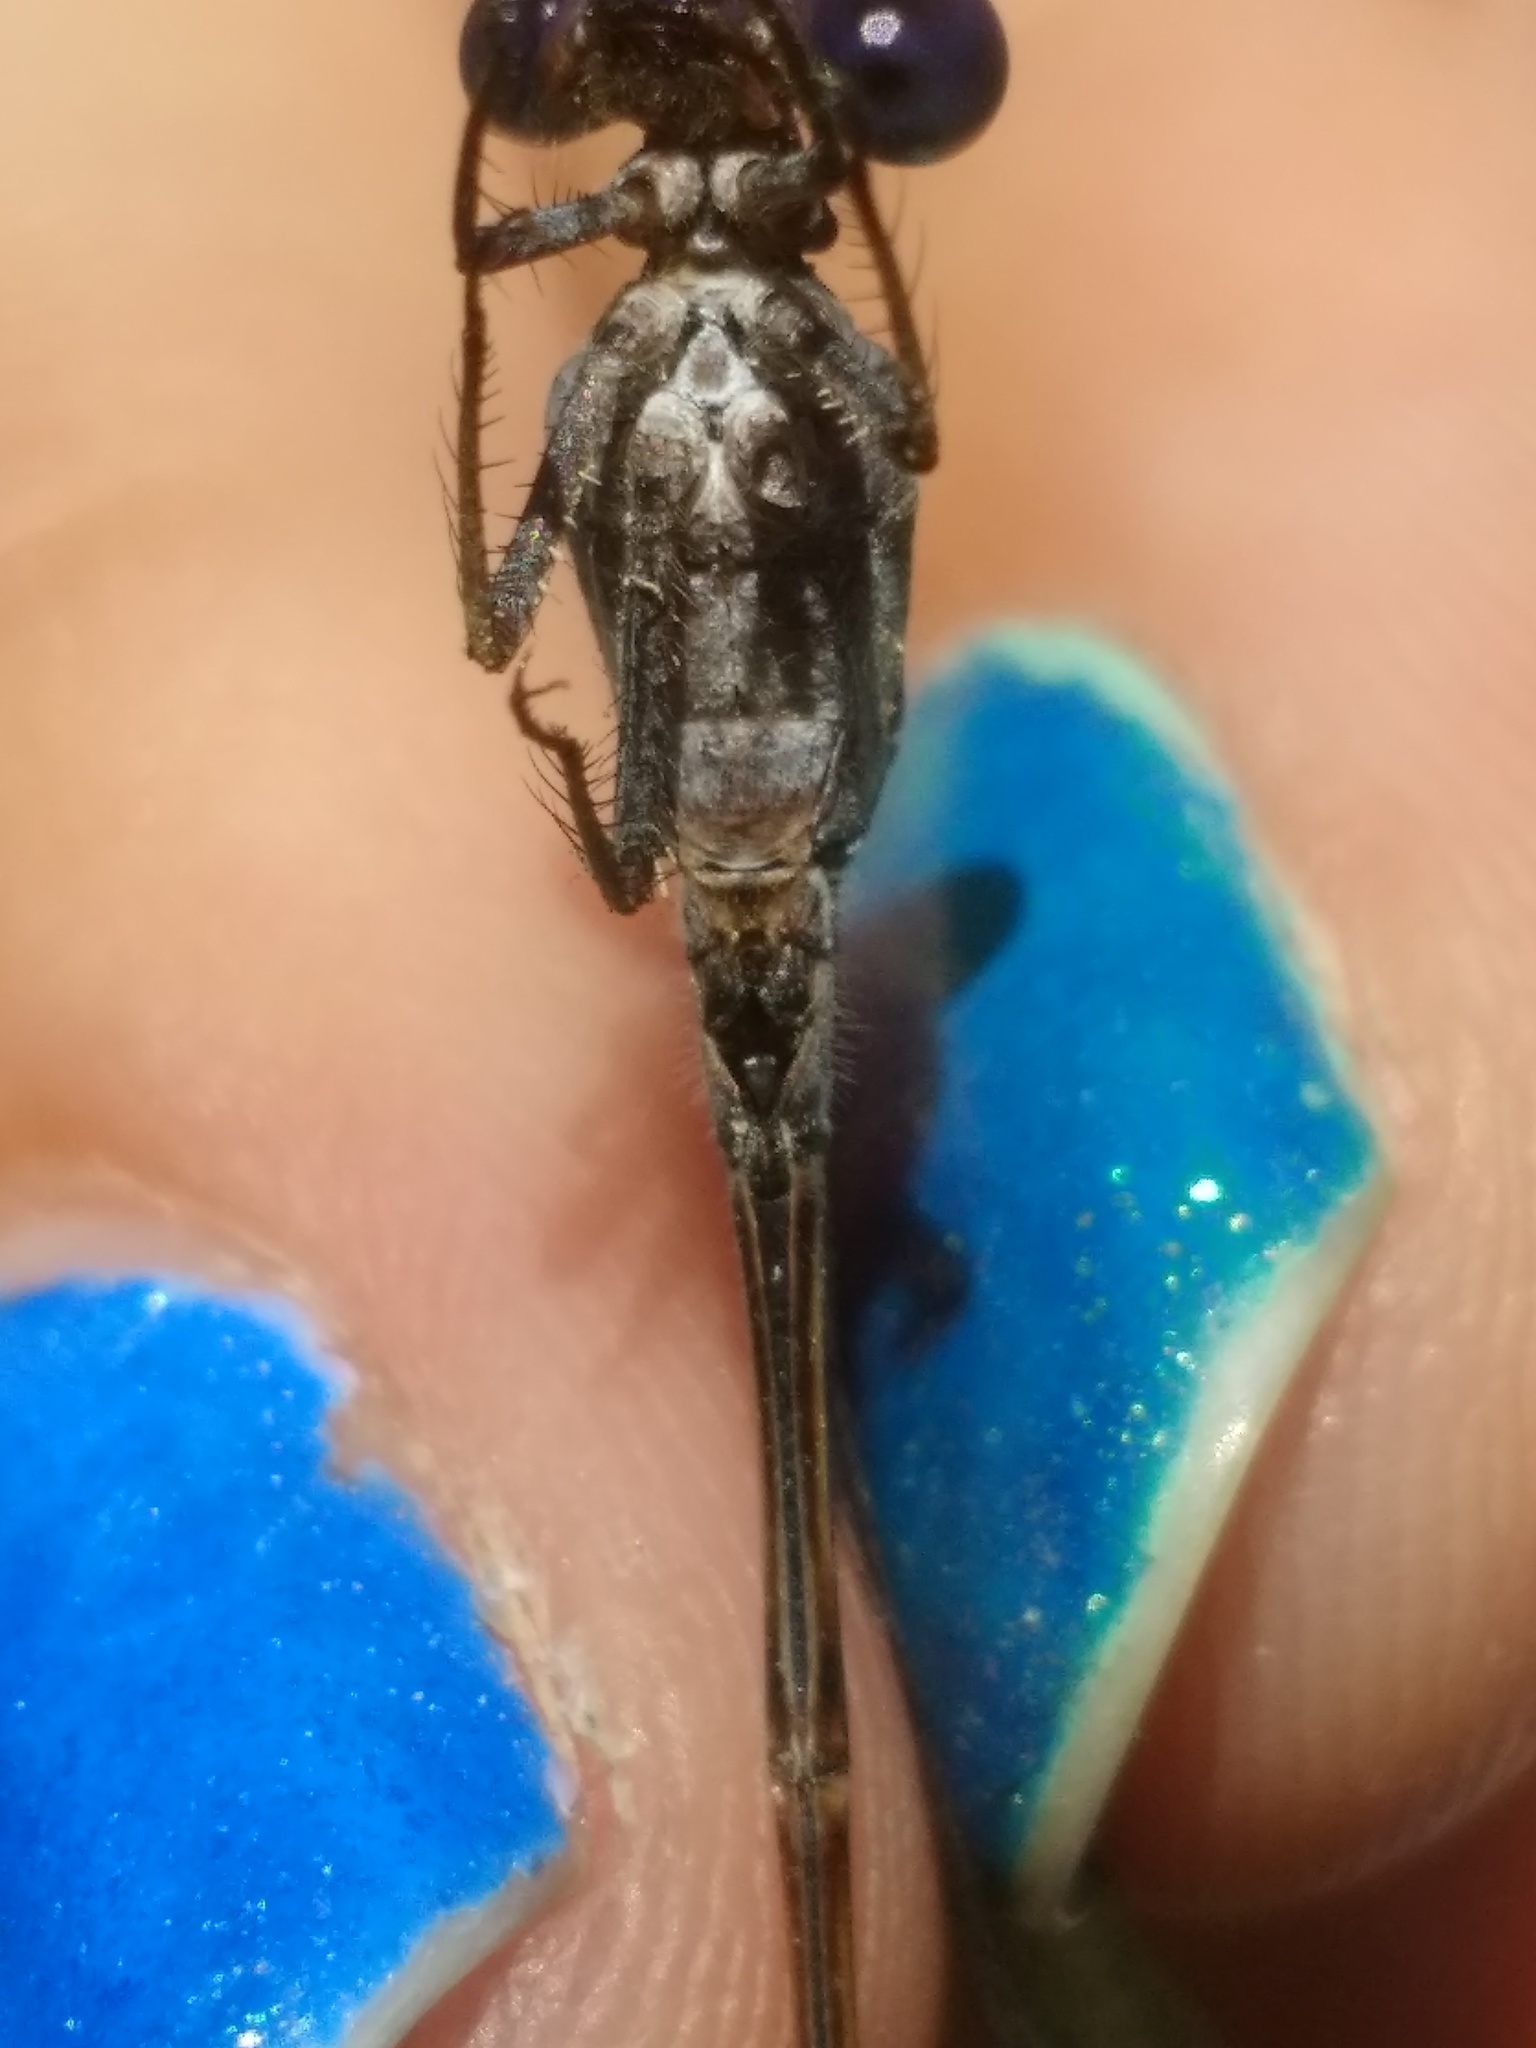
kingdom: Animalia
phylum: Arthropoda
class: Insecta
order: Odonata
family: Coenagrionidae
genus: Argia
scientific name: Argia translata
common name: Dusky dancer
